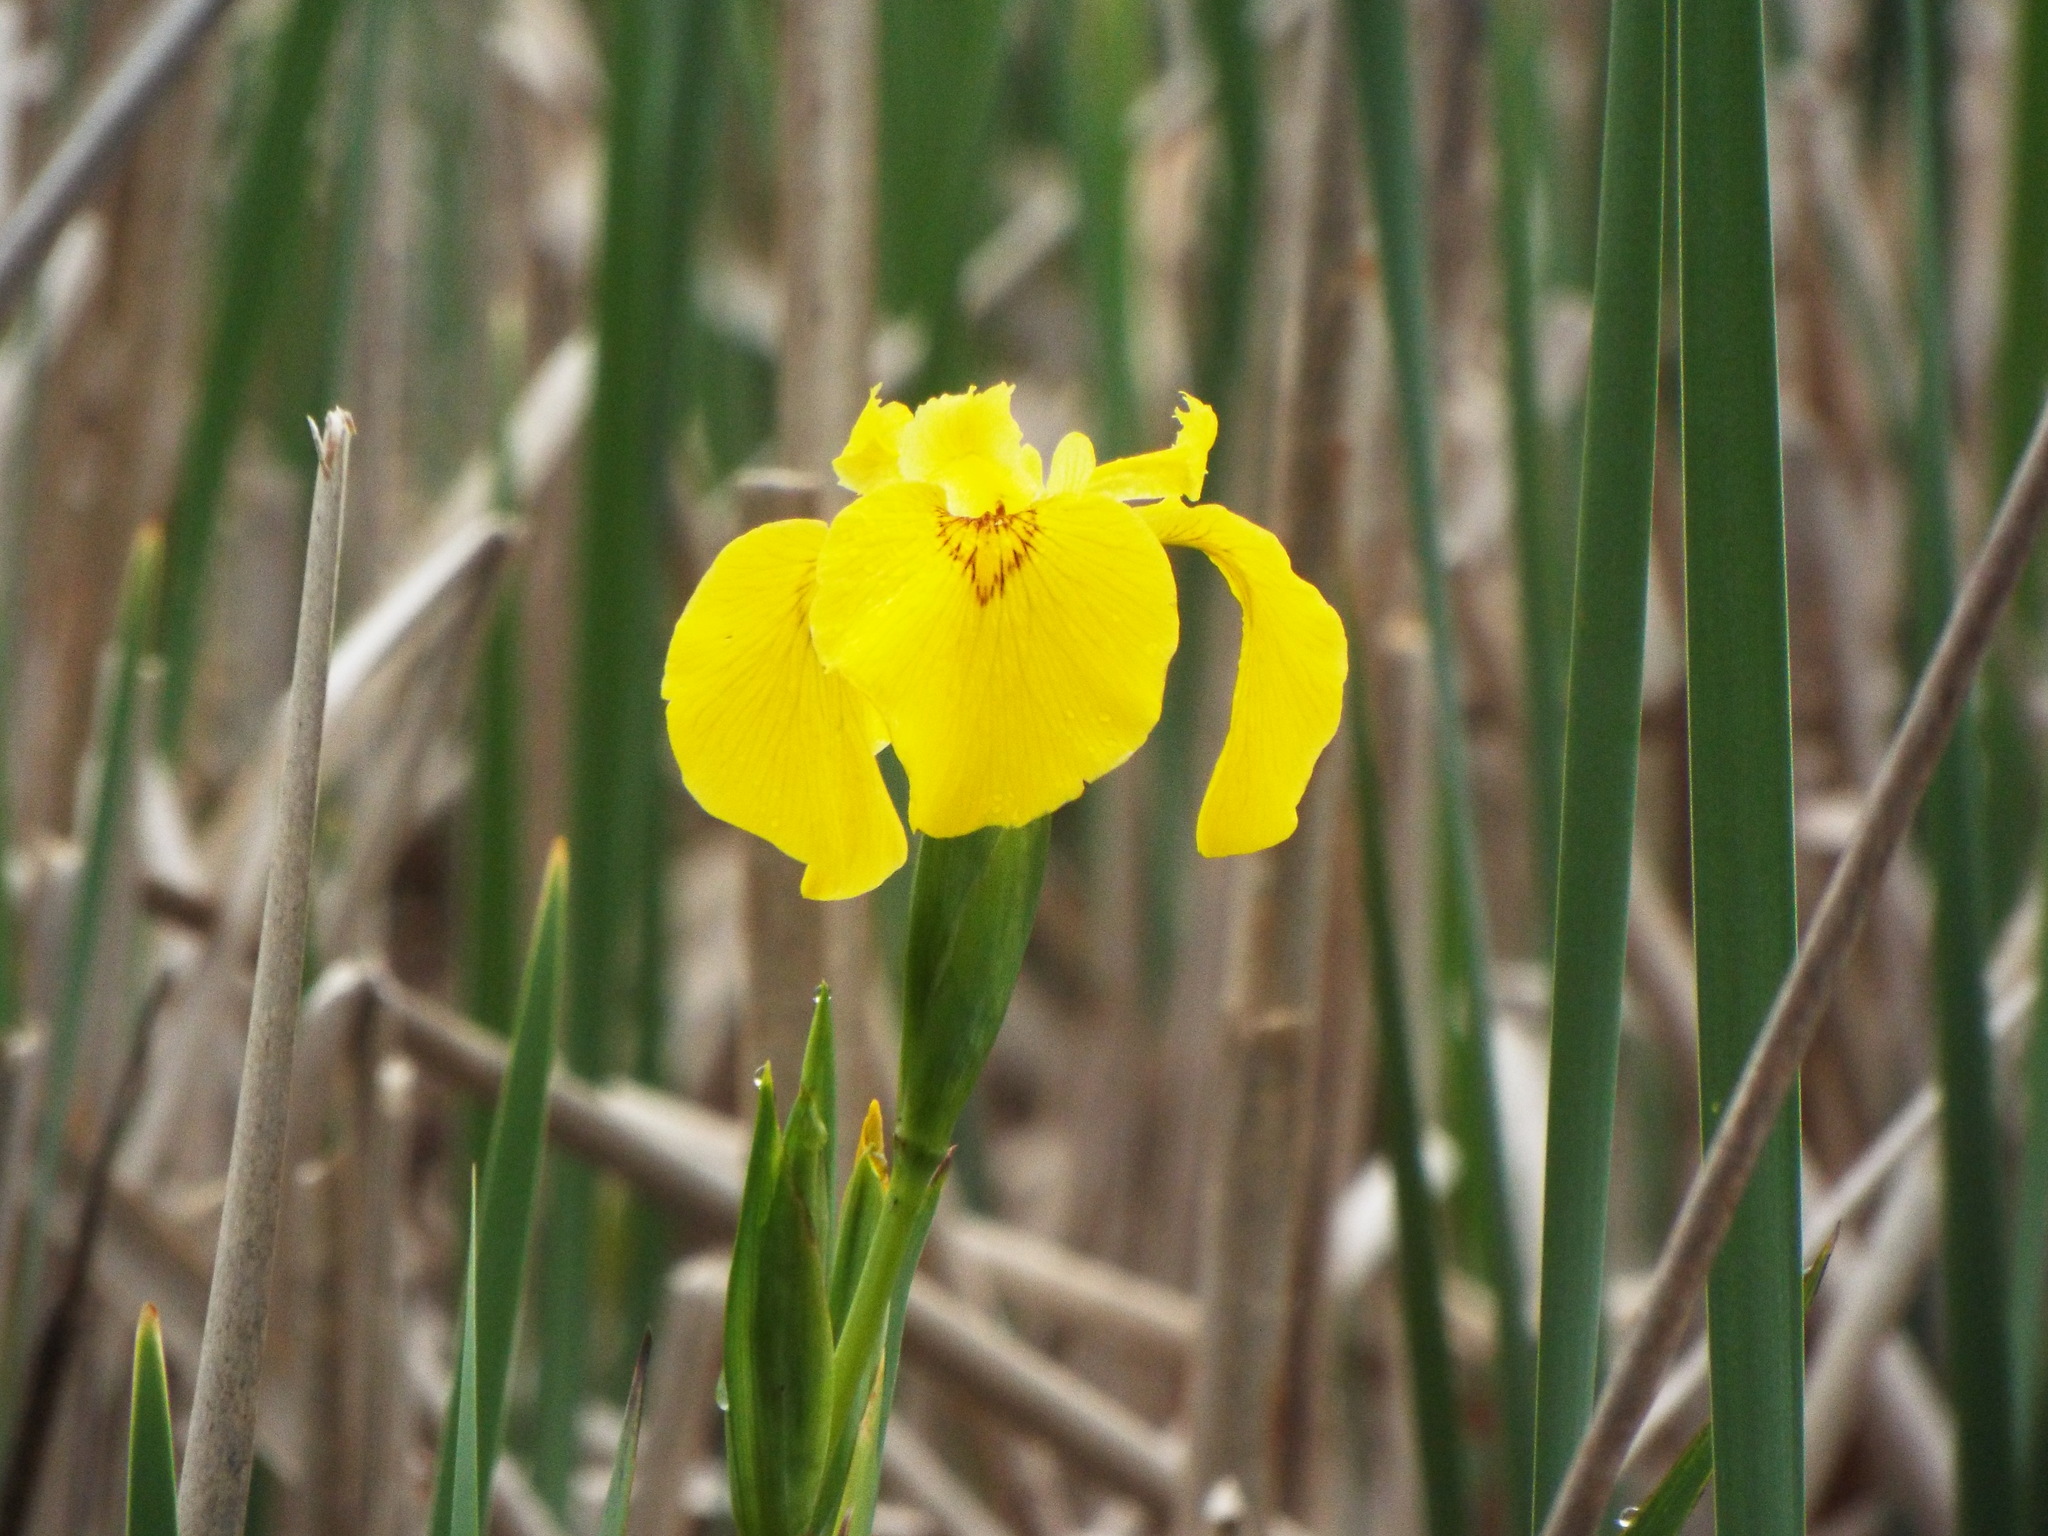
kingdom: Plantae
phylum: Tracheophyta
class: Liliopsida
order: Asparagales
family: Iridaceae
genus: Iris
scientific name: Iris pseudacorus
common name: Yellow flag
